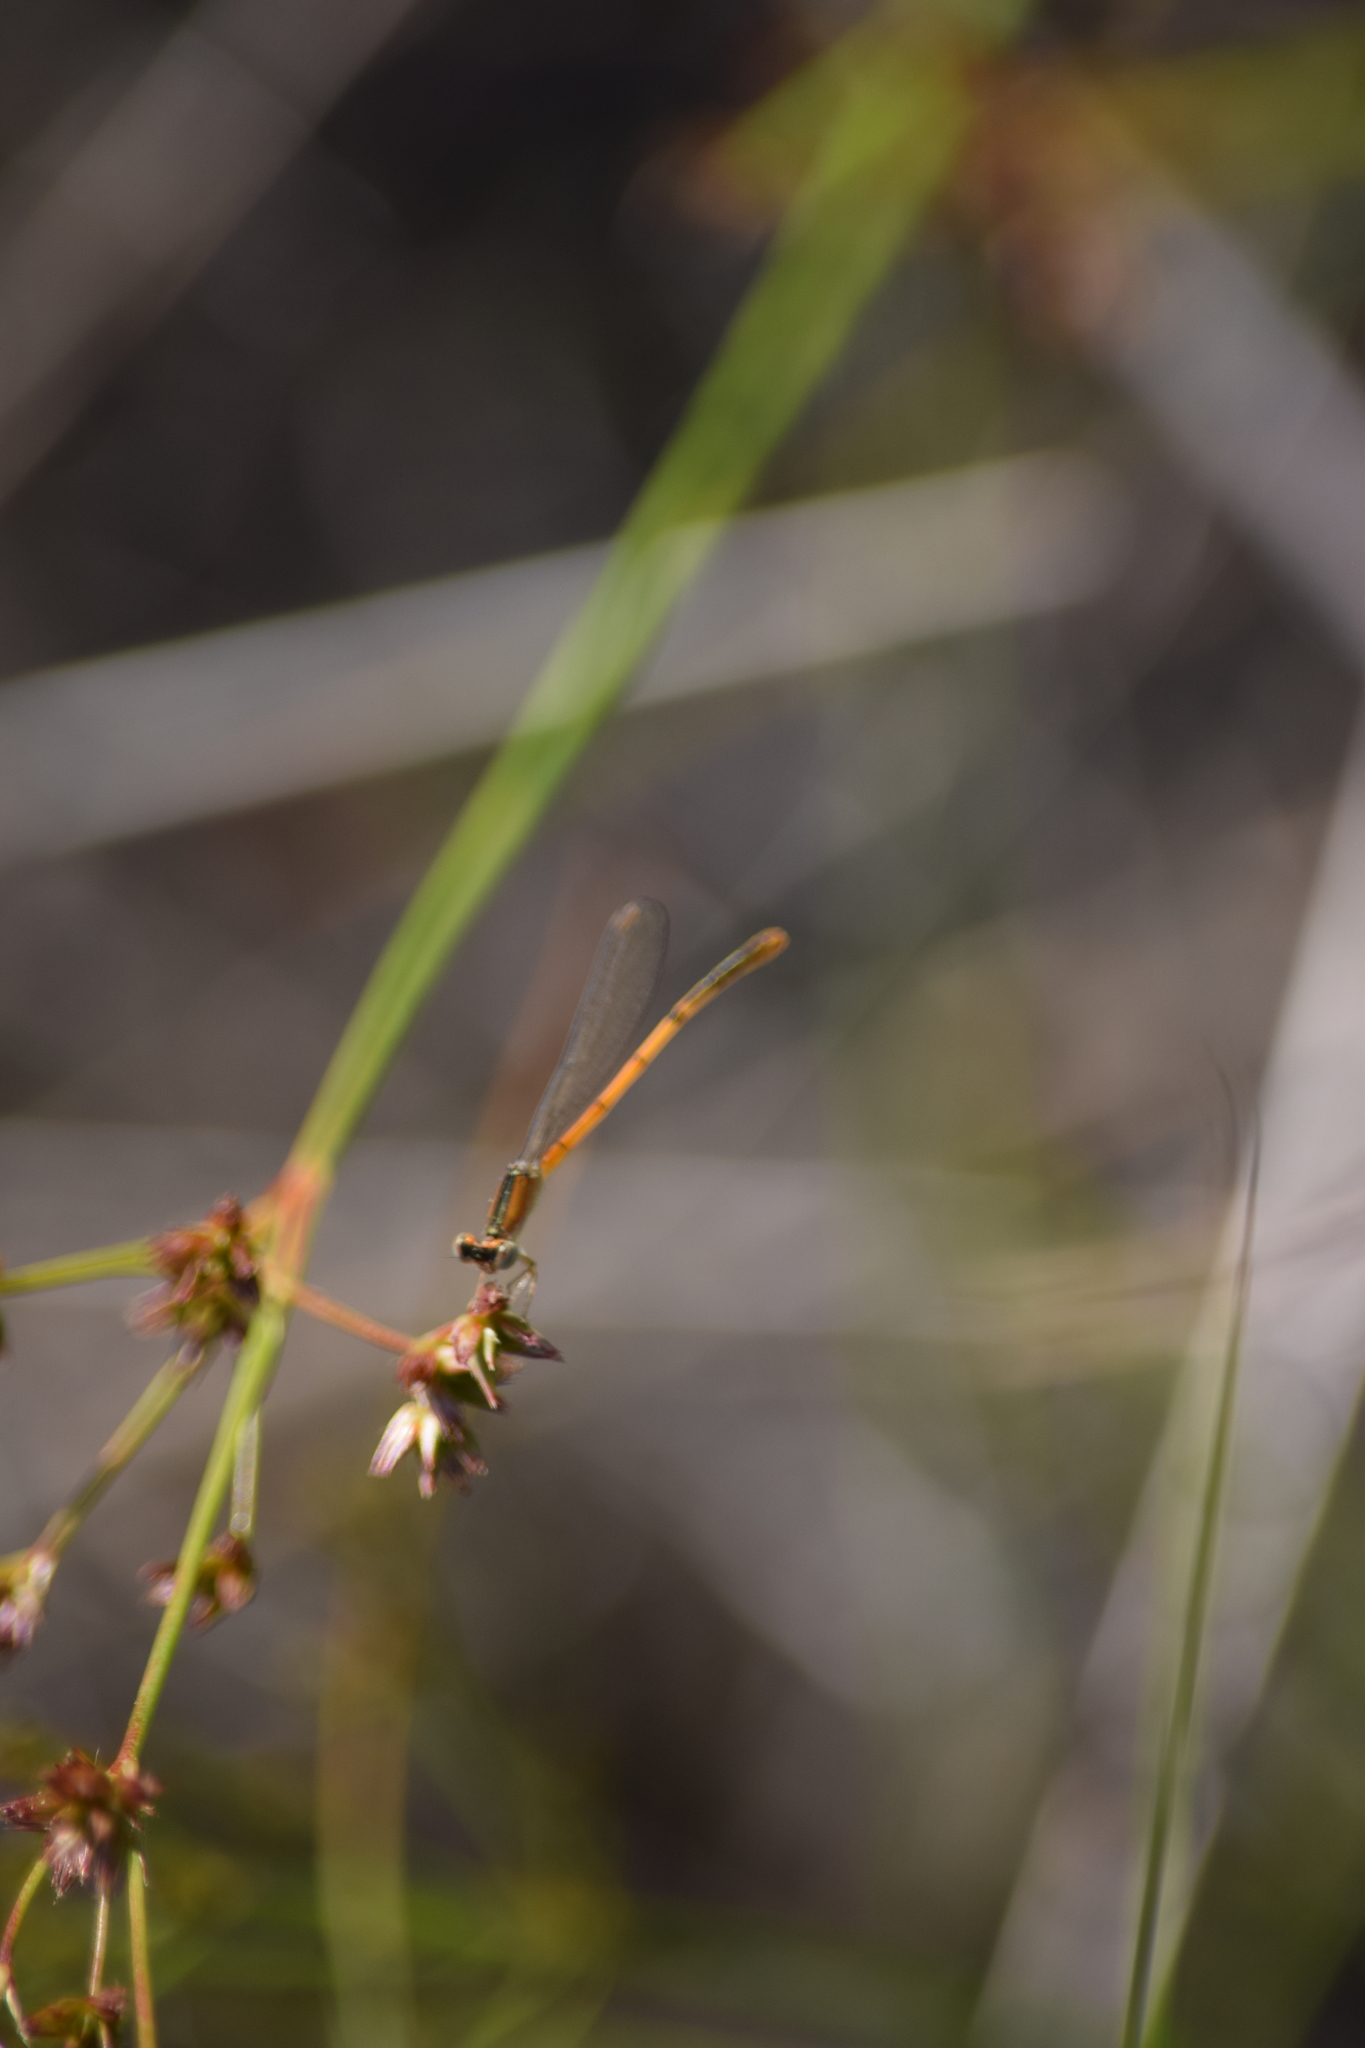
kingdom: Animalia
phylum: Arthropoda
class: Insecta
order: Odonata
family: Coenagrionidae
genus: Ischnura
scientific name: Ischnura hastata
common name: Citrine forktail
